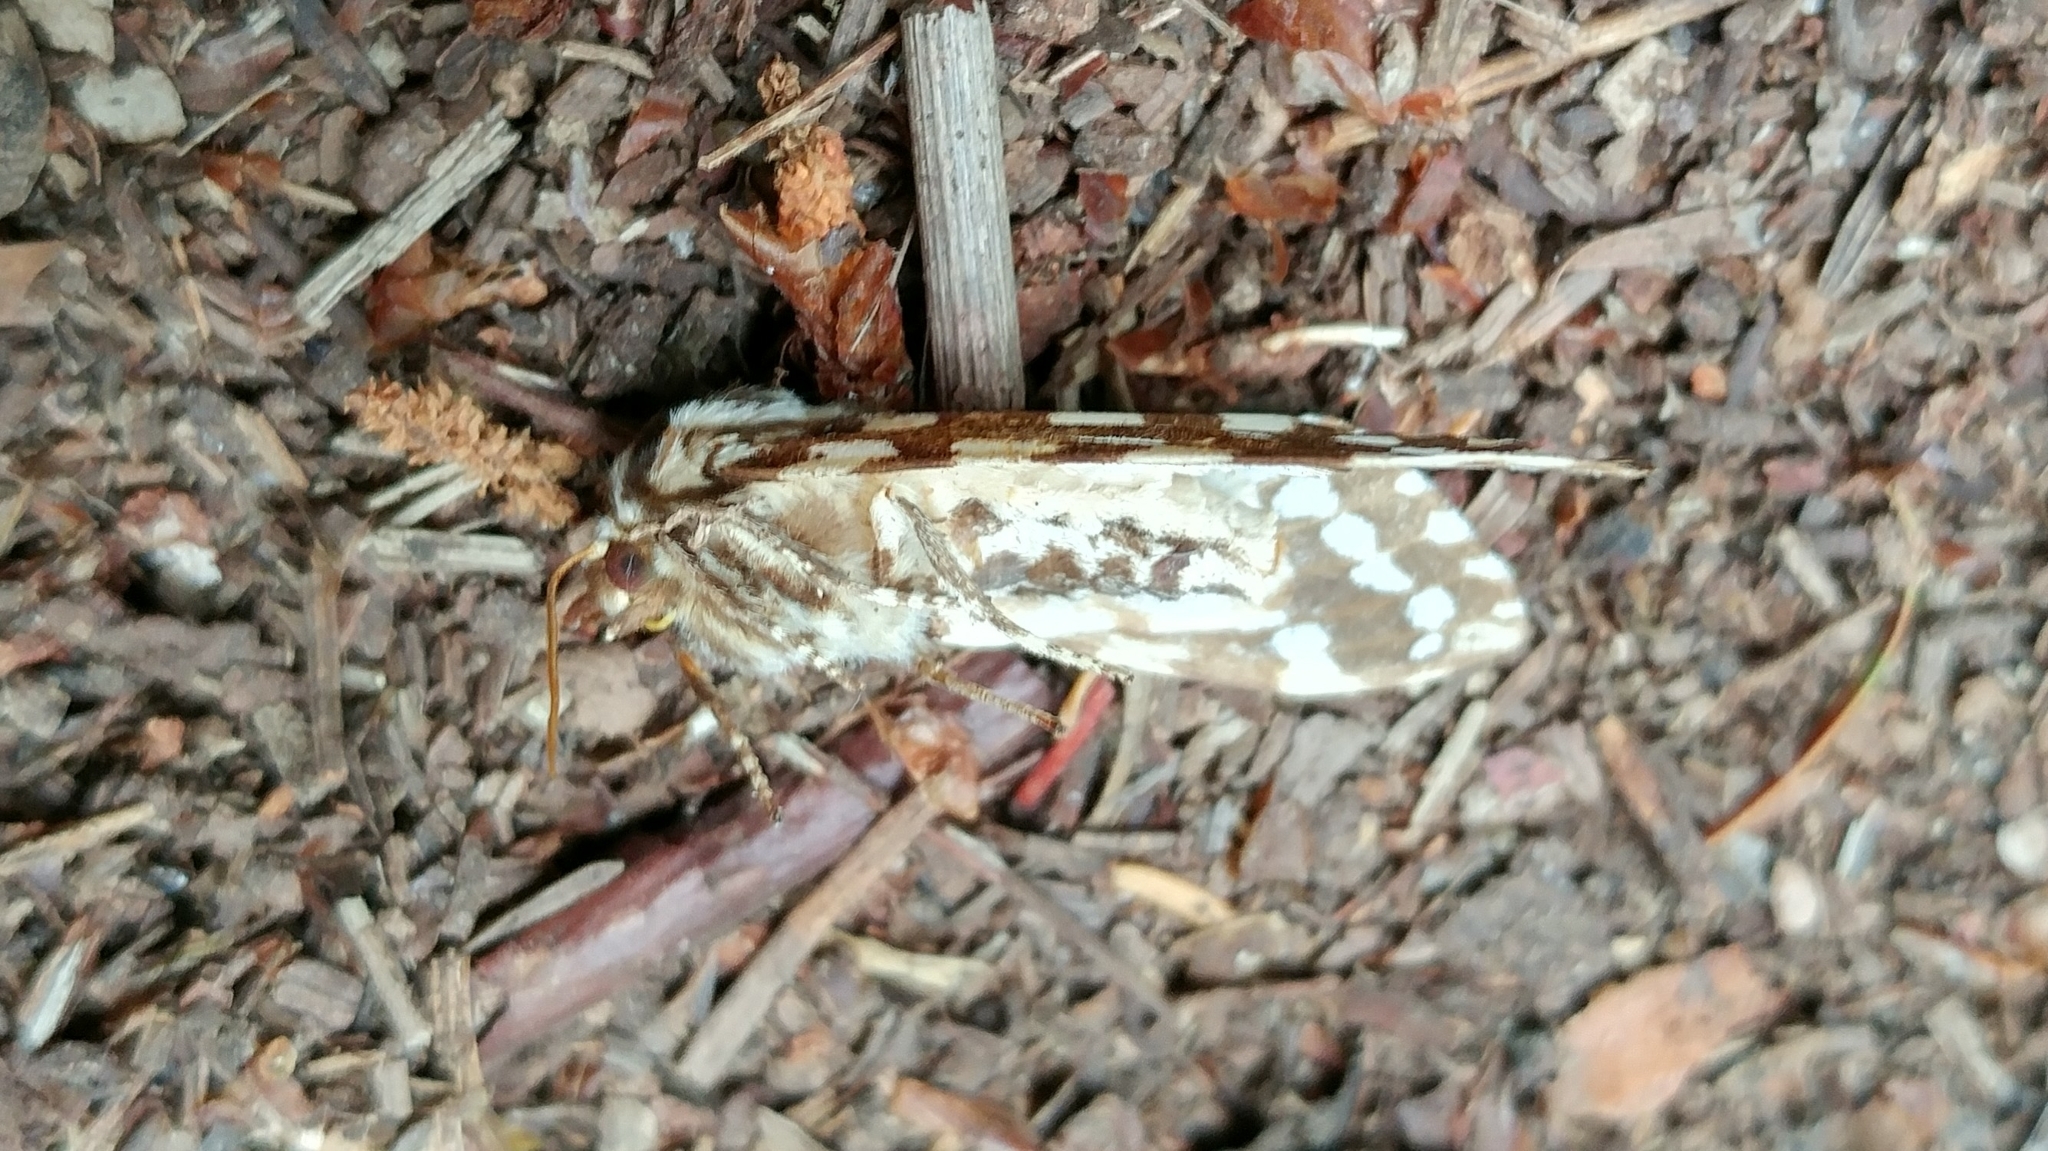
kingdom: Animalia
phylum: Arthropoda
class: Insecta
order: Lepidoptera
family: Erebidae
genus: Lophocampa
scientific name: Lophocampa argentata
